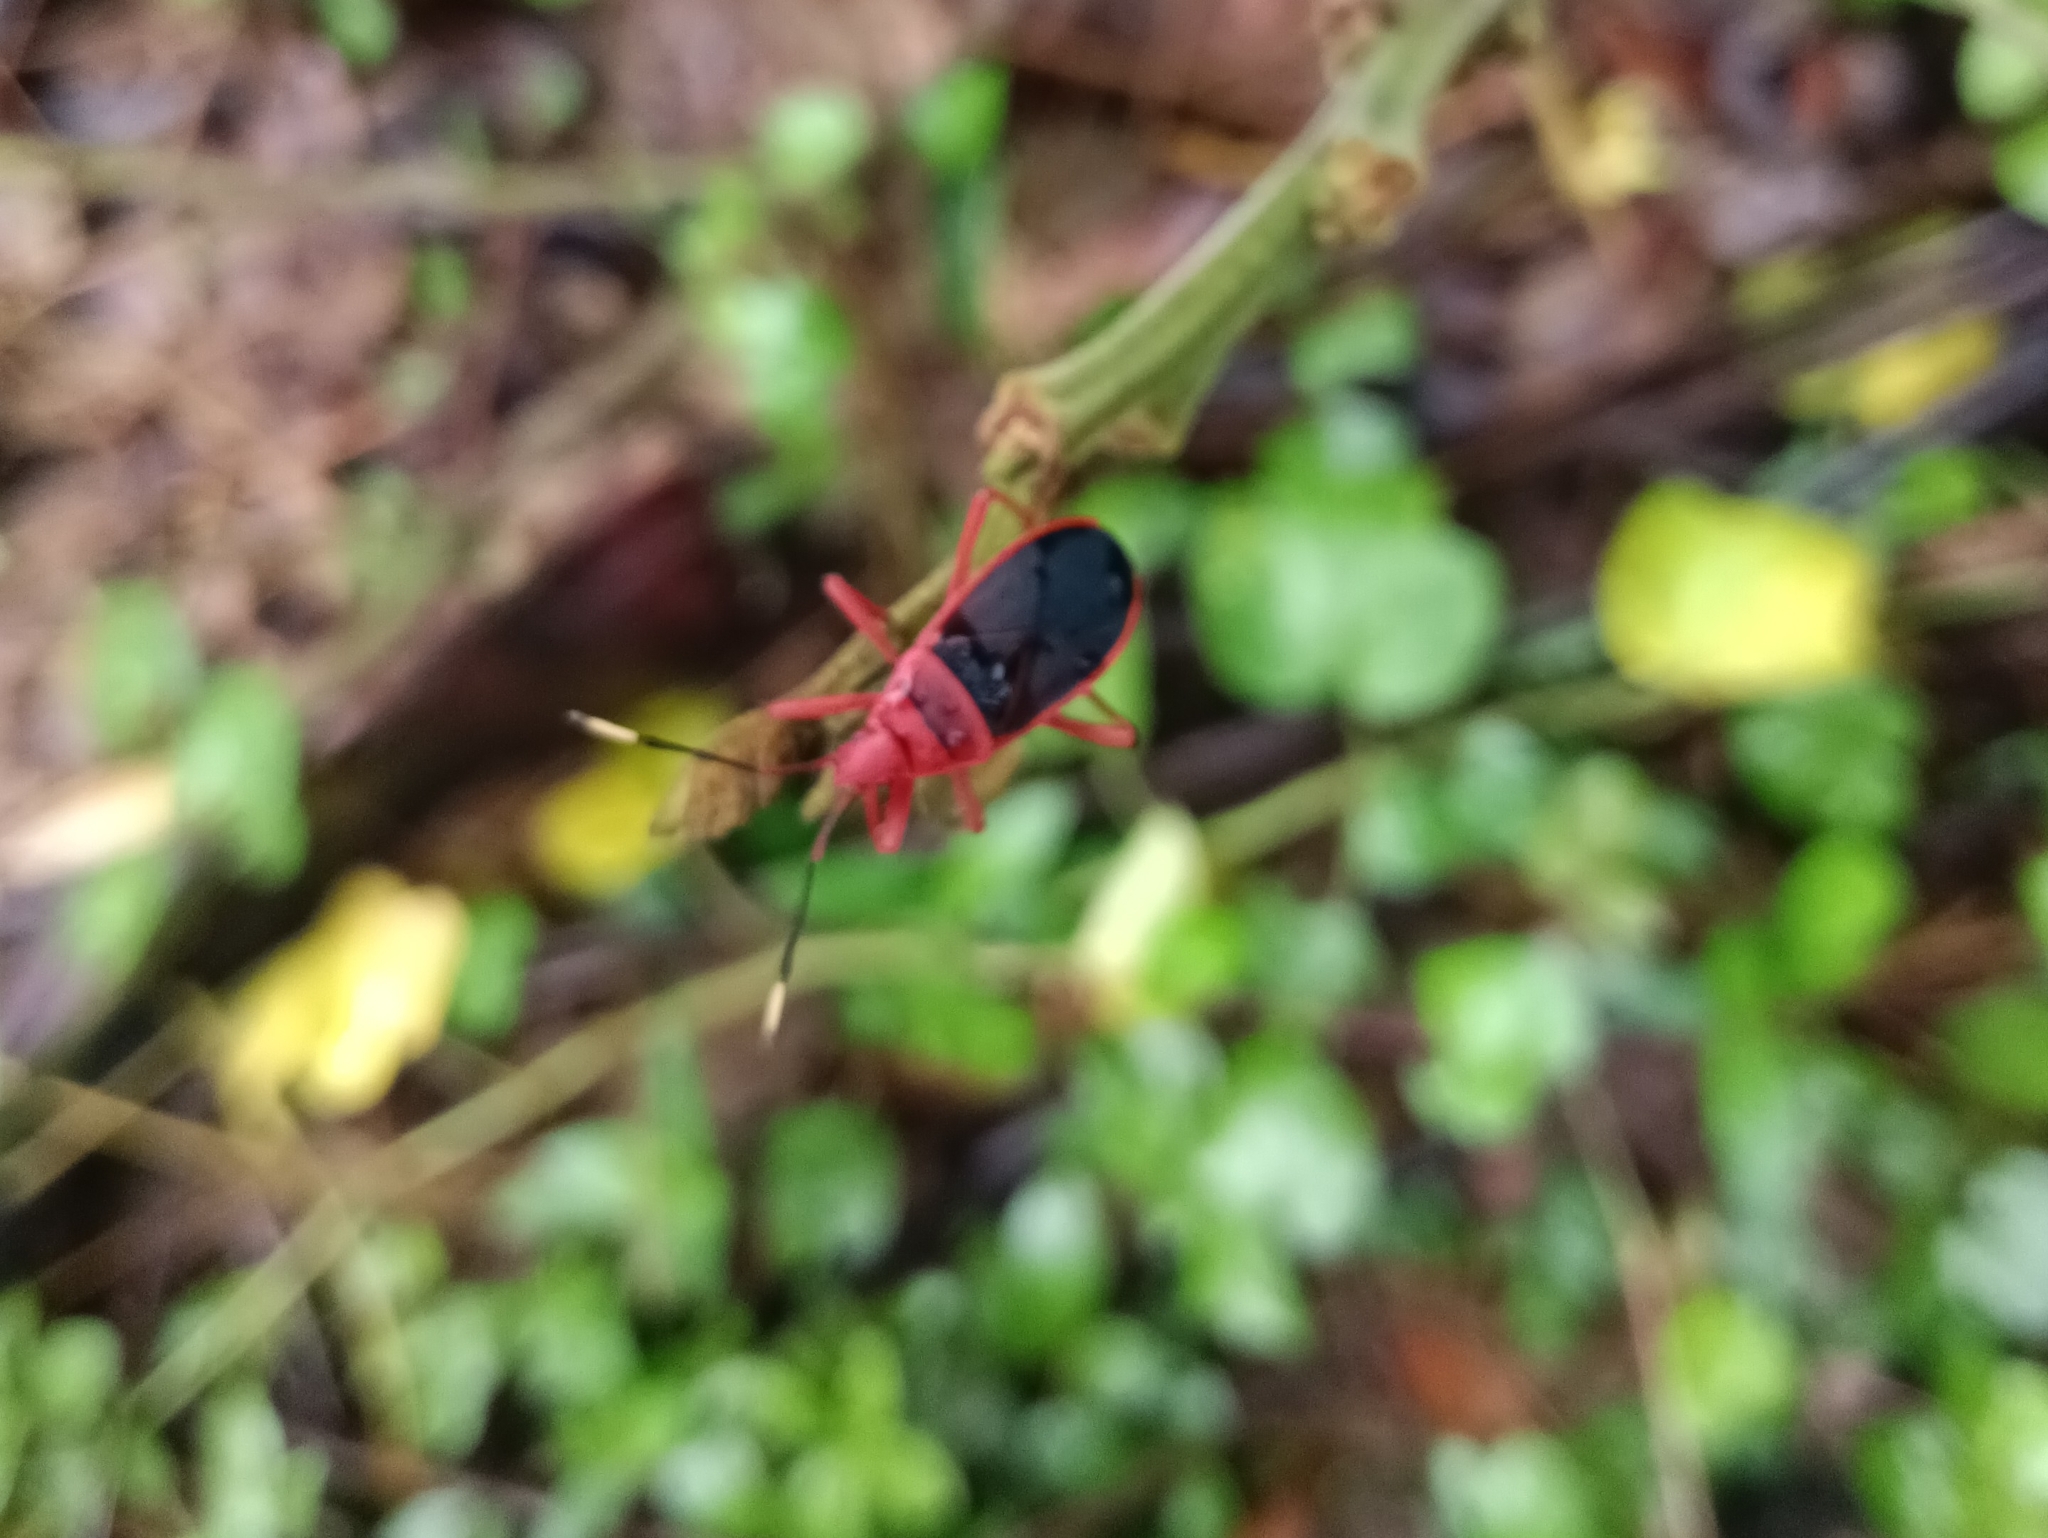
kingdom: Animalia
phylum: Arthropoda
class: Insecta
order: Hemiptera
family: Pyrrhocoridae
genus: Probergrothius
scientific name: Probergrothius
